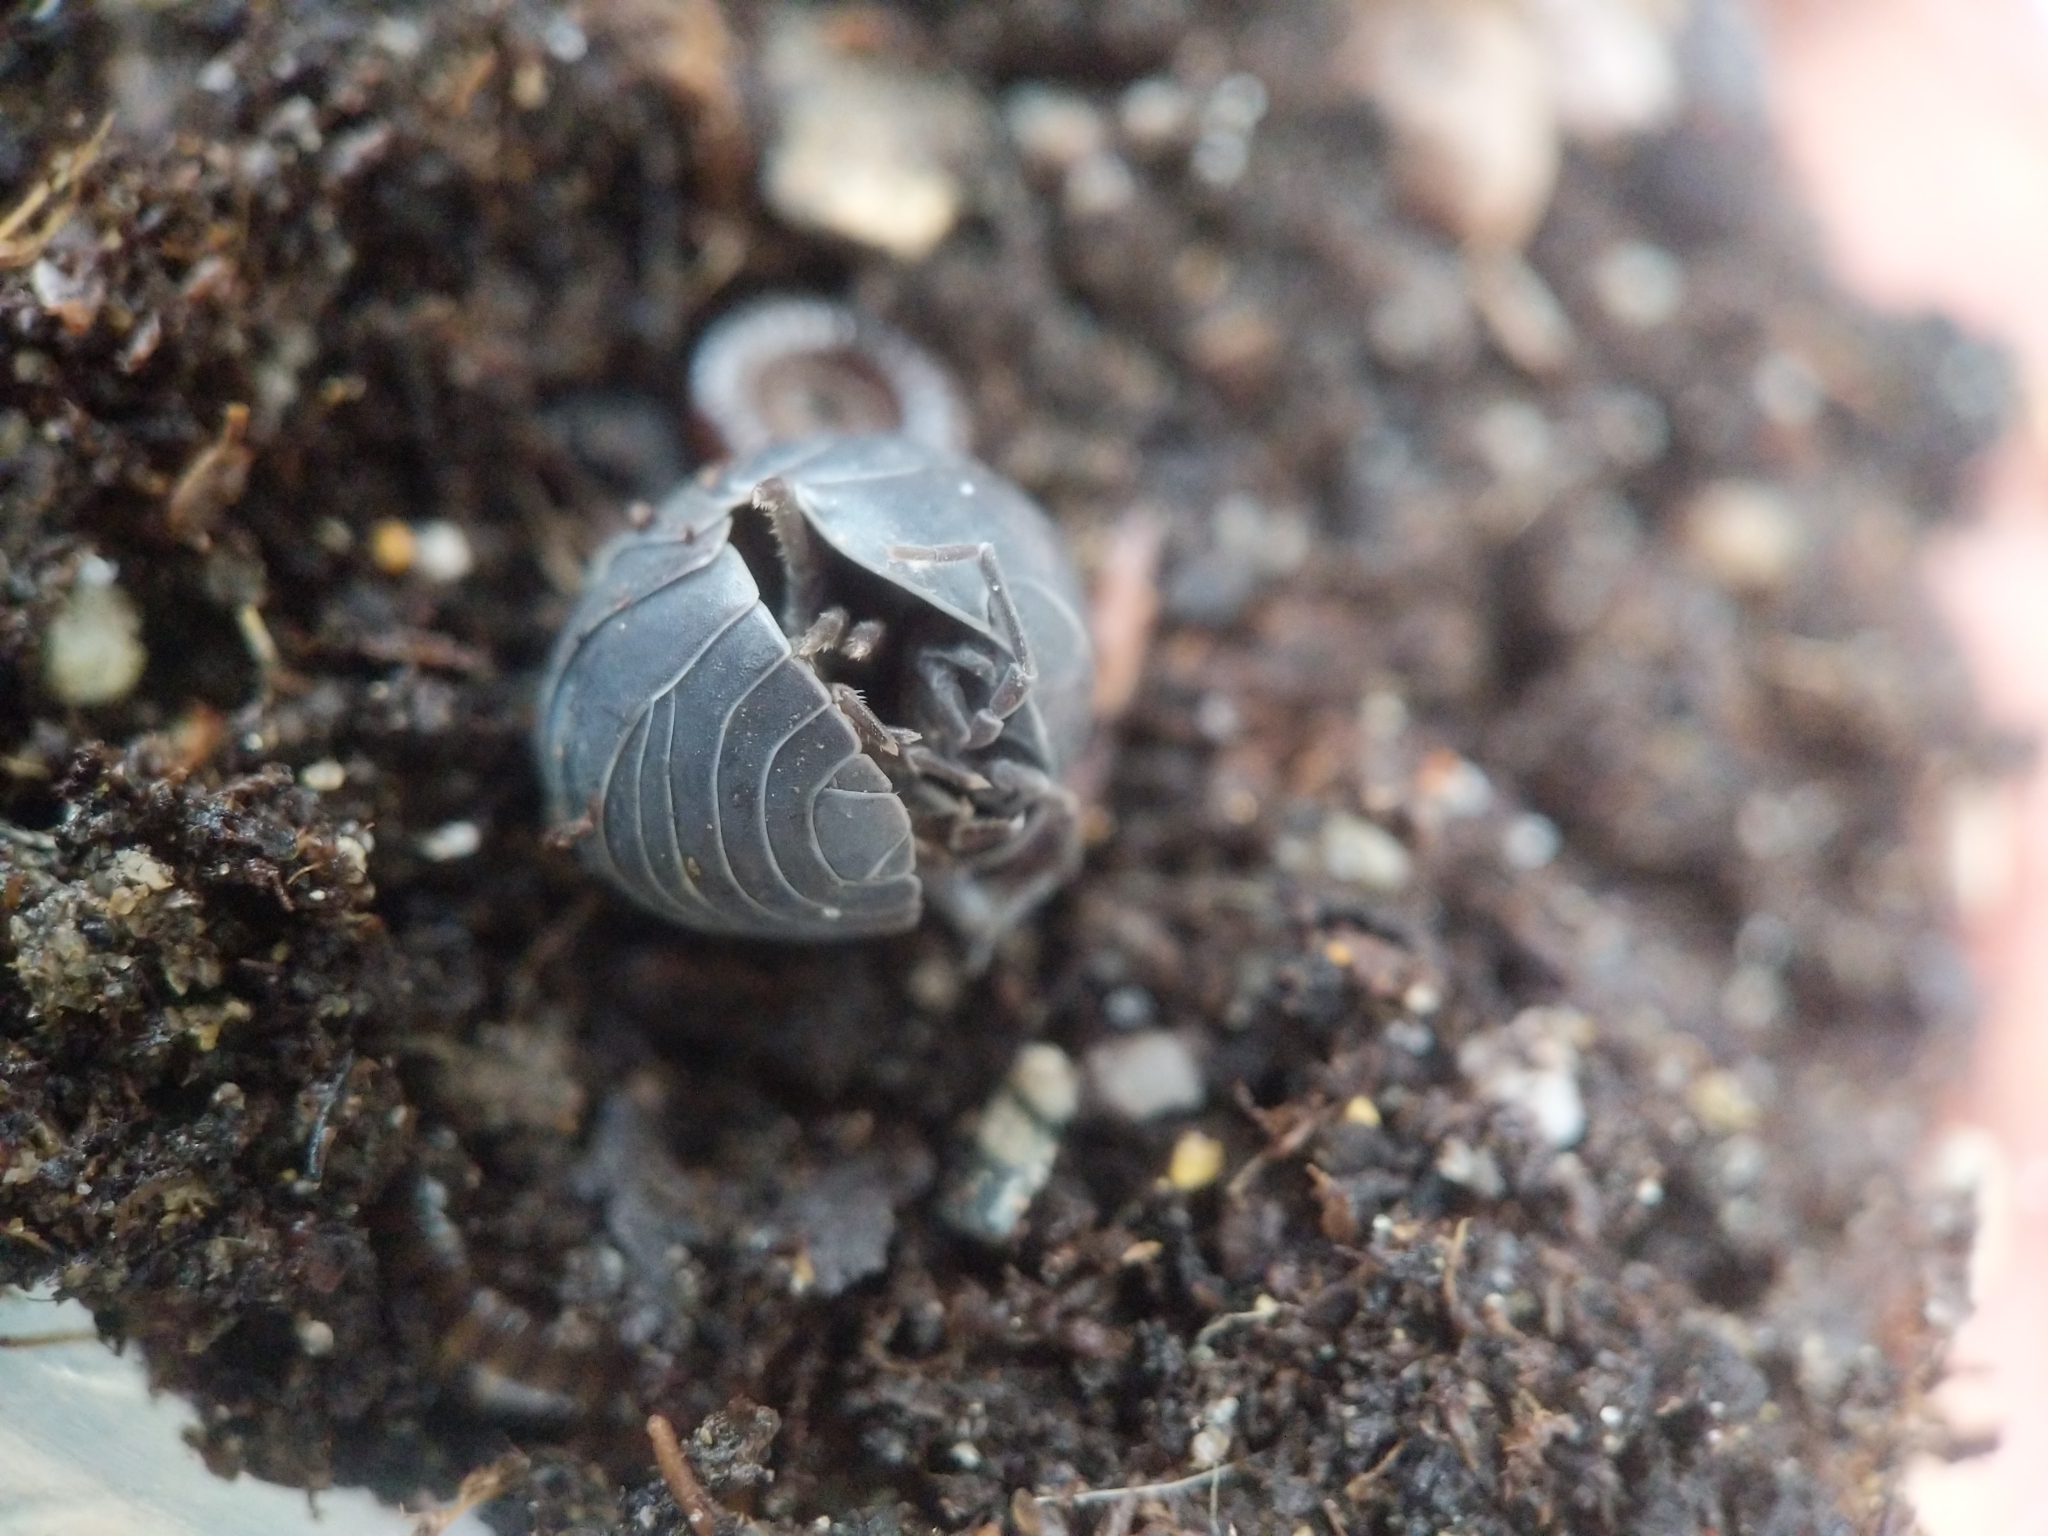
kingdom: Animalia
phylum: Arthropoda
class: Malacostraca
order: Isopoda
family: Armadillidiidae
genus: Armadillidium
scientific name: Armadillidium vulgare
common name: Common pill woodlouse
